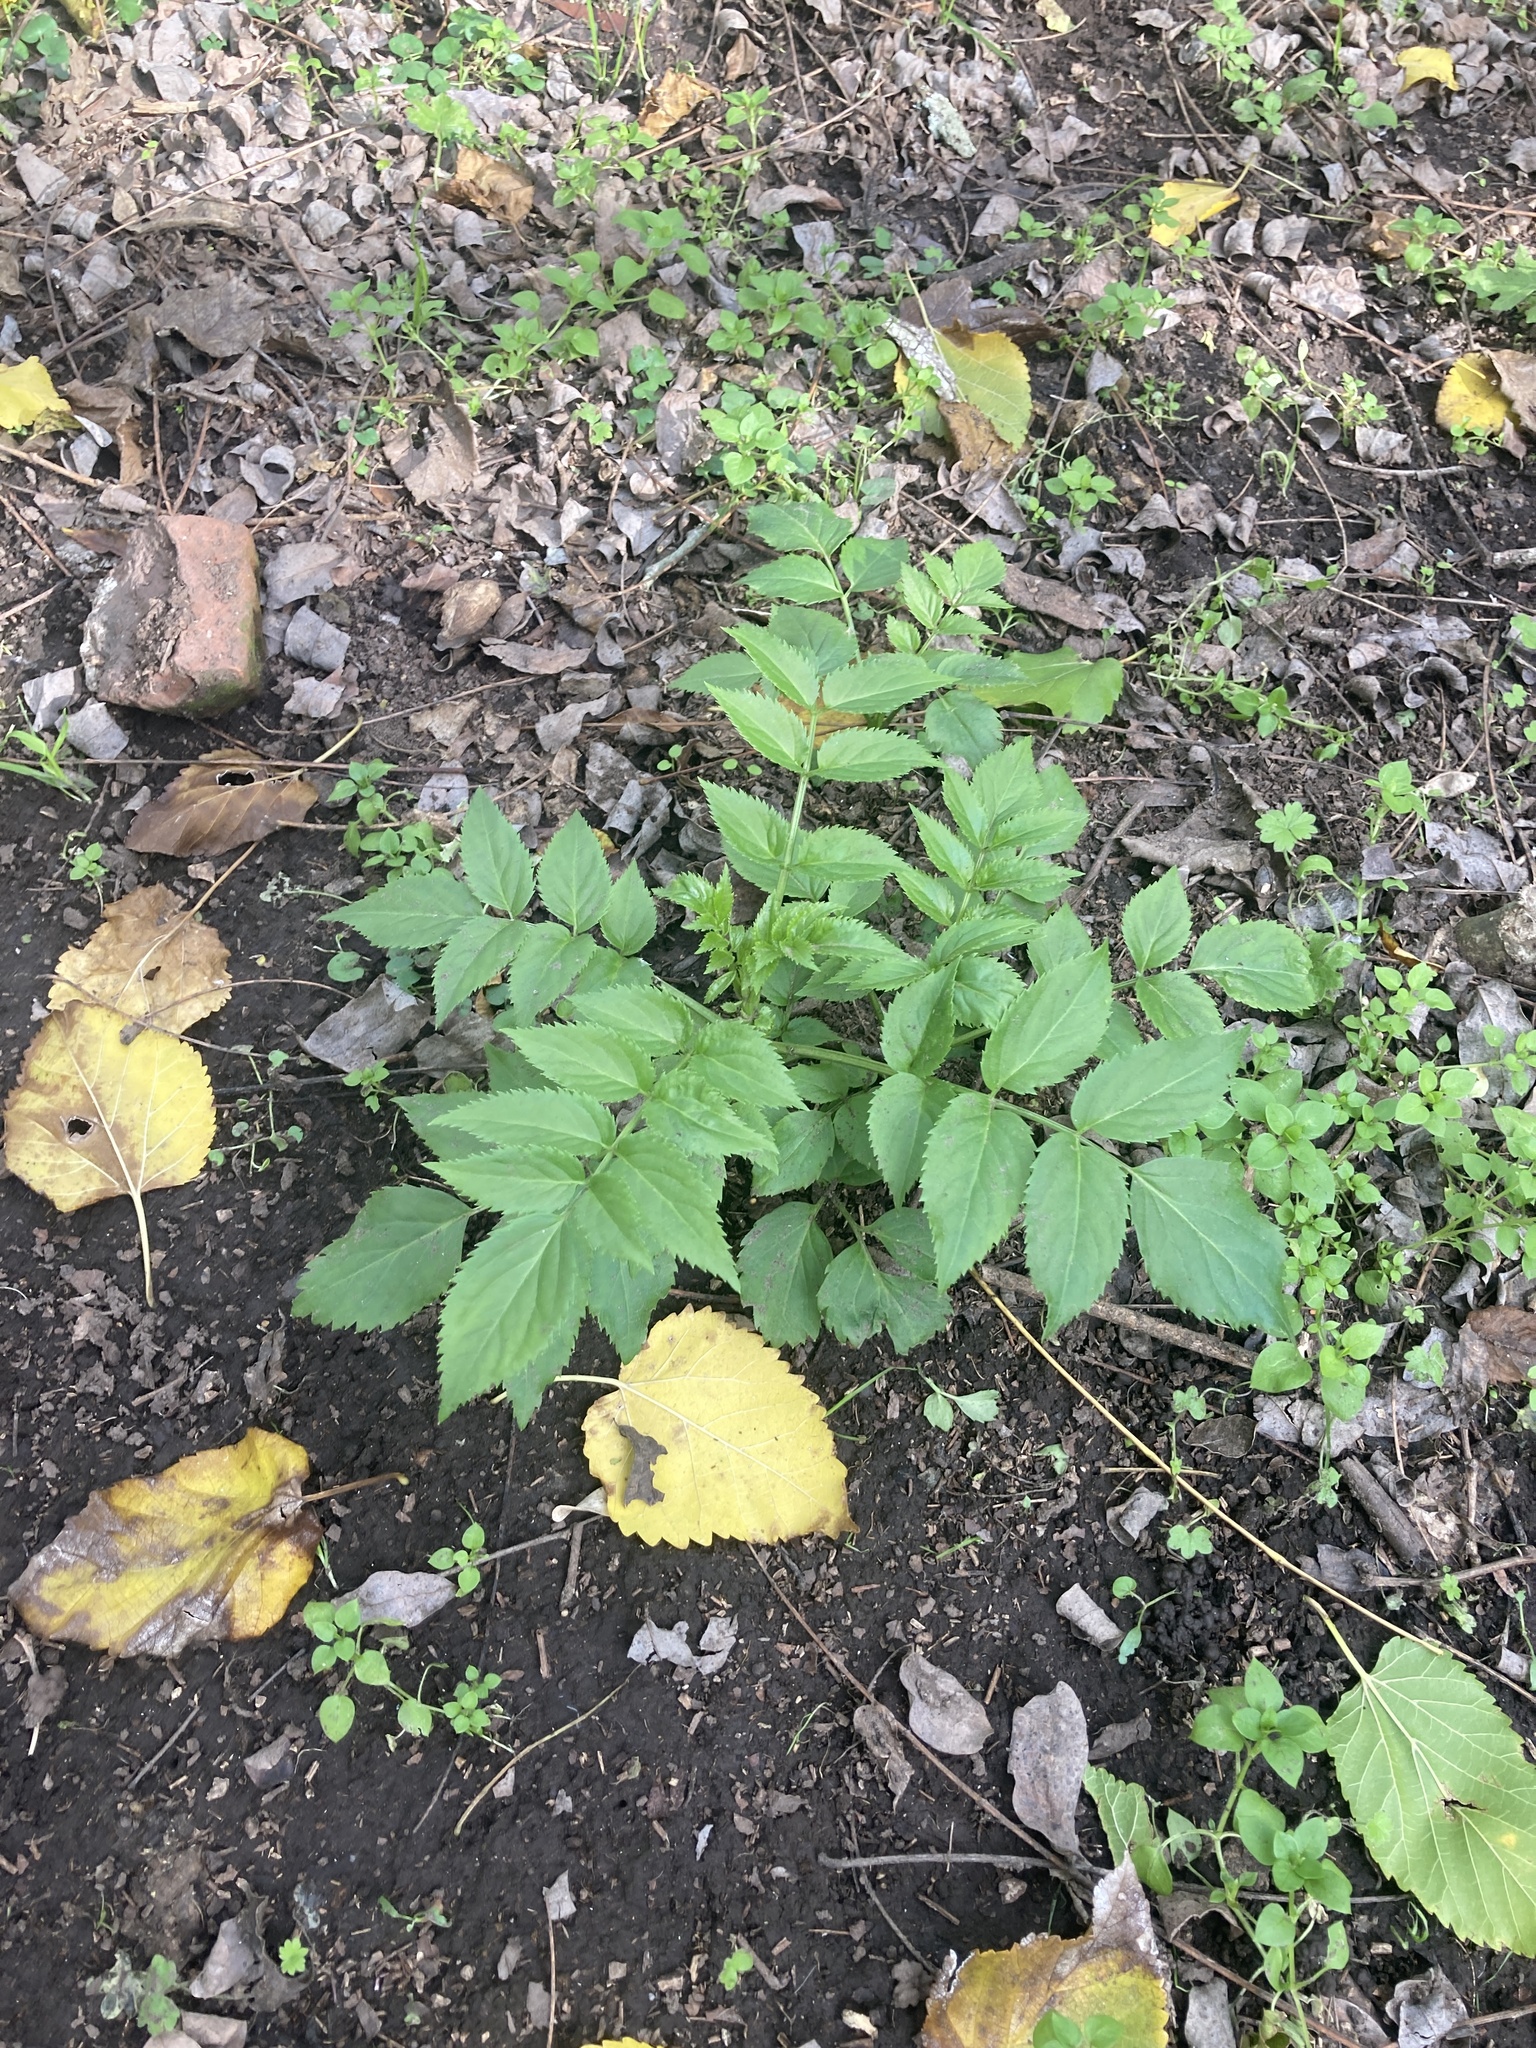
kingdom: Plantae
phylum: Tracheophyta
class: Magnoliopsida
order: Dipsacales
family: Viburnaceae
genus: Sambucus
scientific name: Sambucus australis
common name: Southern elder
